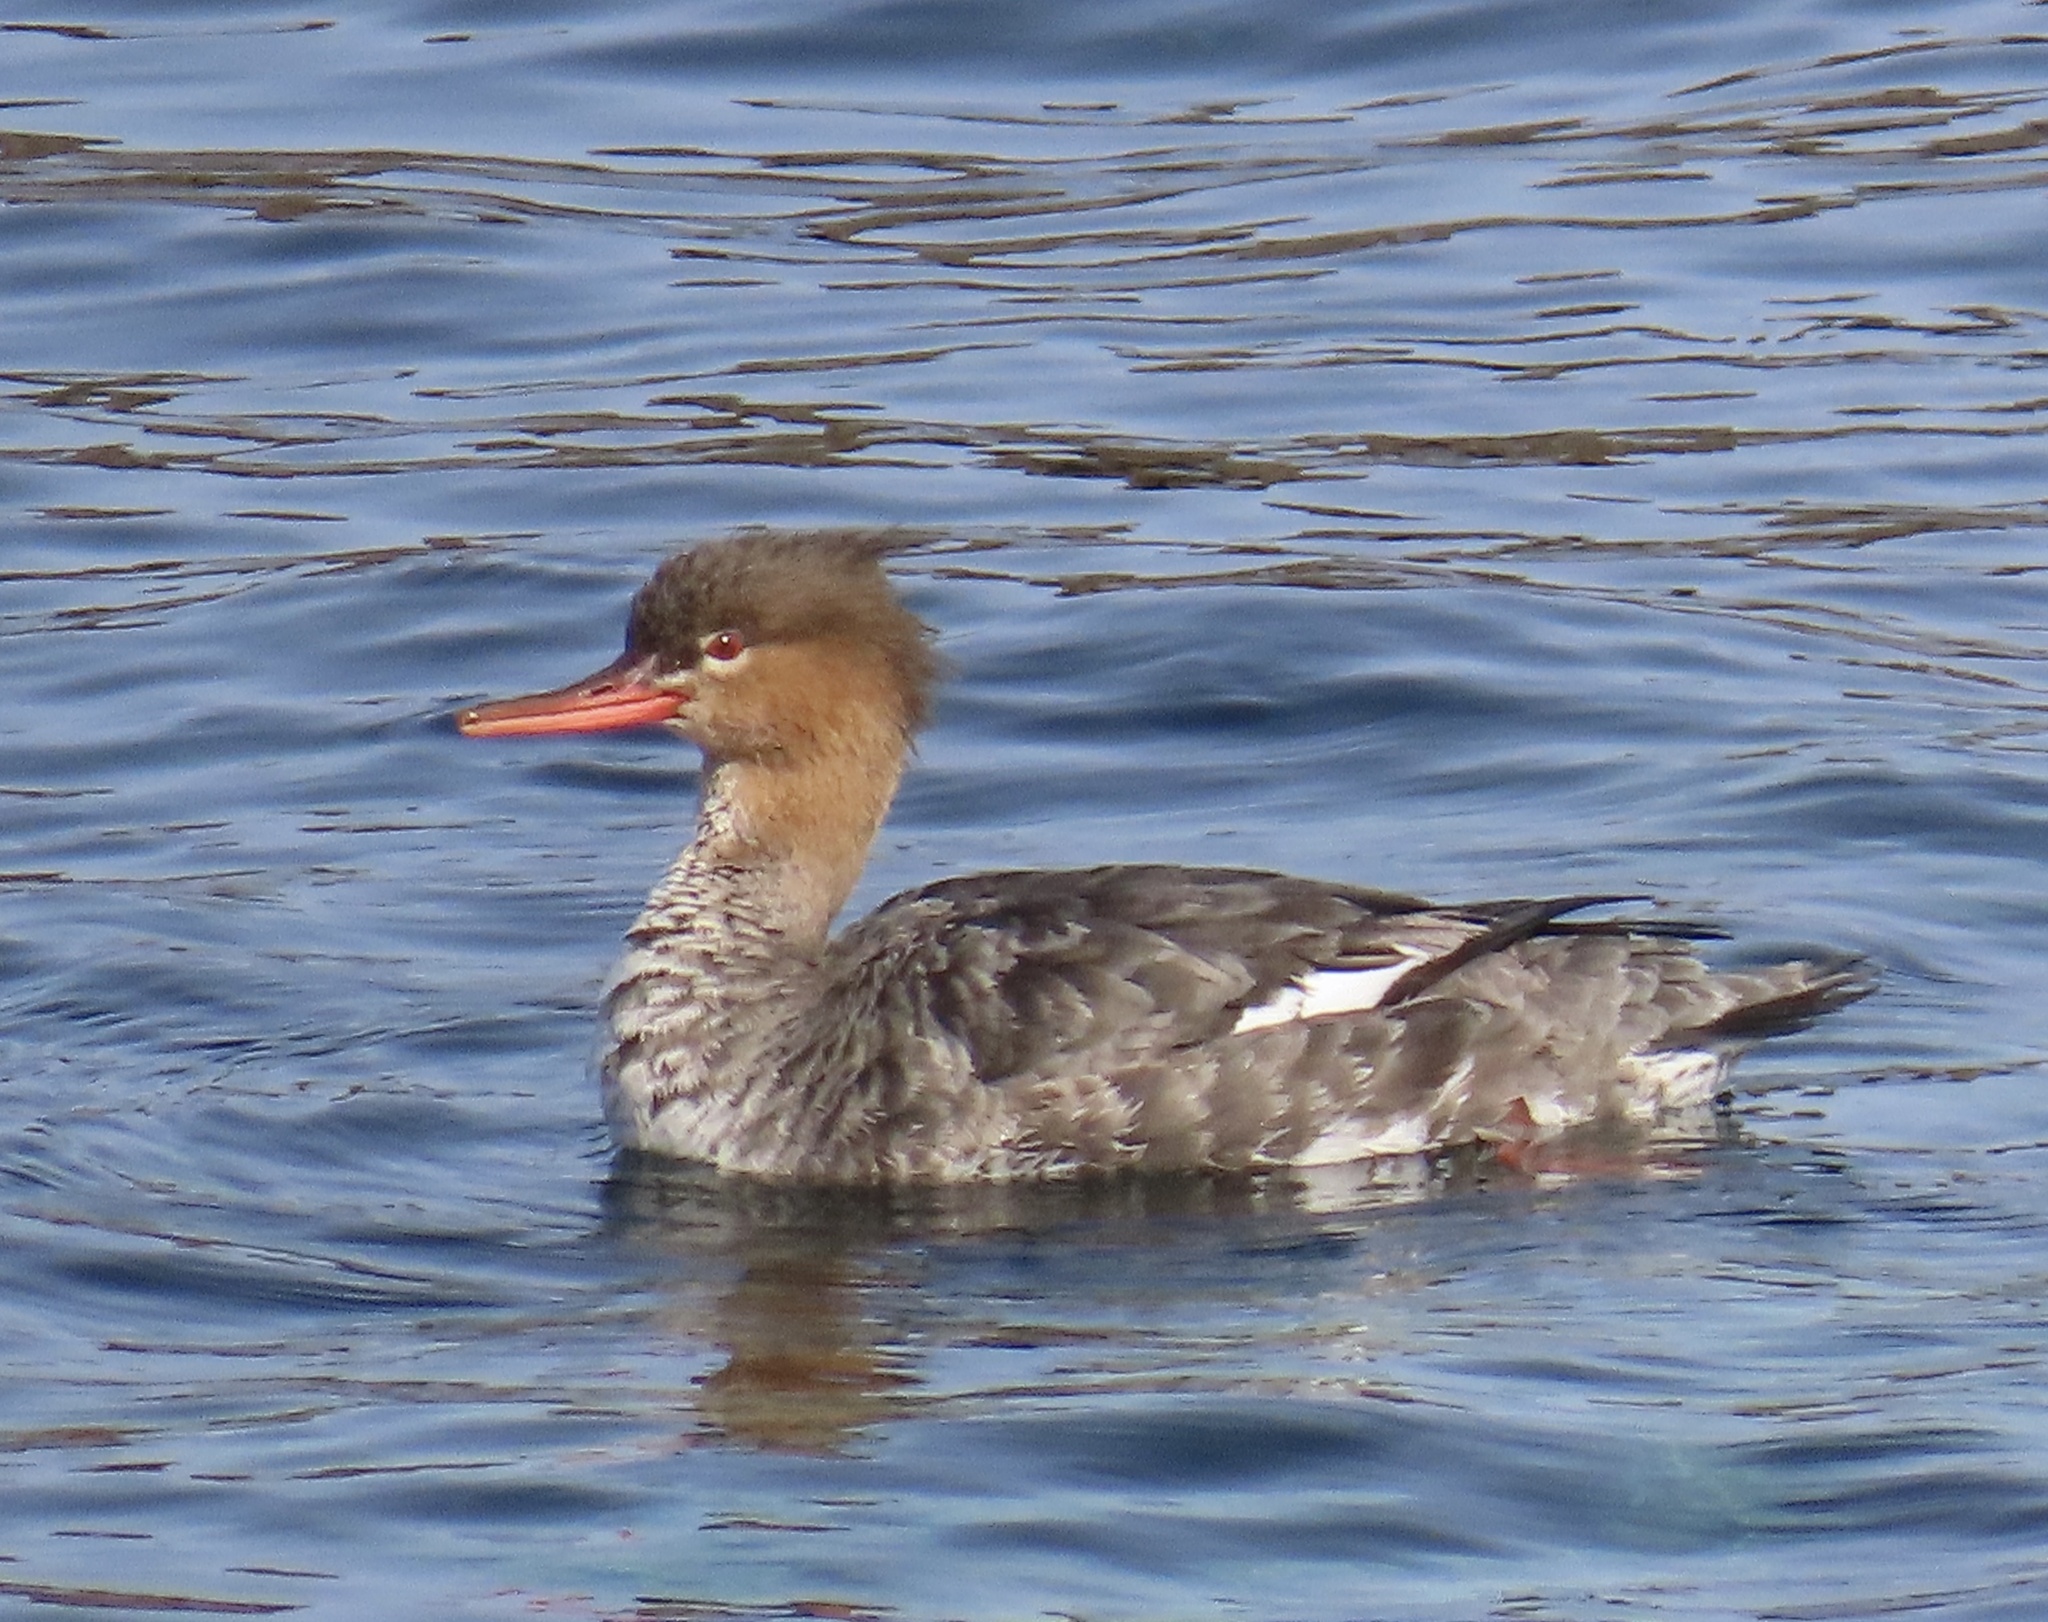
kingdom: Animalia
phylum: Chordata
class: Aves
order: Anseriformes
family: Anatidae
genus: Mergus
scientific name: Mergus serrator
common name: Red-breasted merganser
